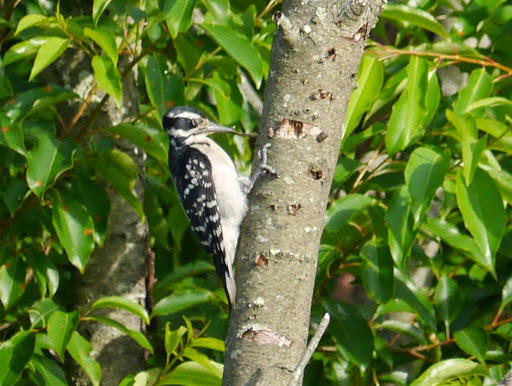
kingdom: Animalia
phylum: Chordata
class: Aves
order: Piciformes
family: Picidae
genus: Leuconotopicus
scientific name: Leuconotopicus villosus
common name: Hairy woodpecker
